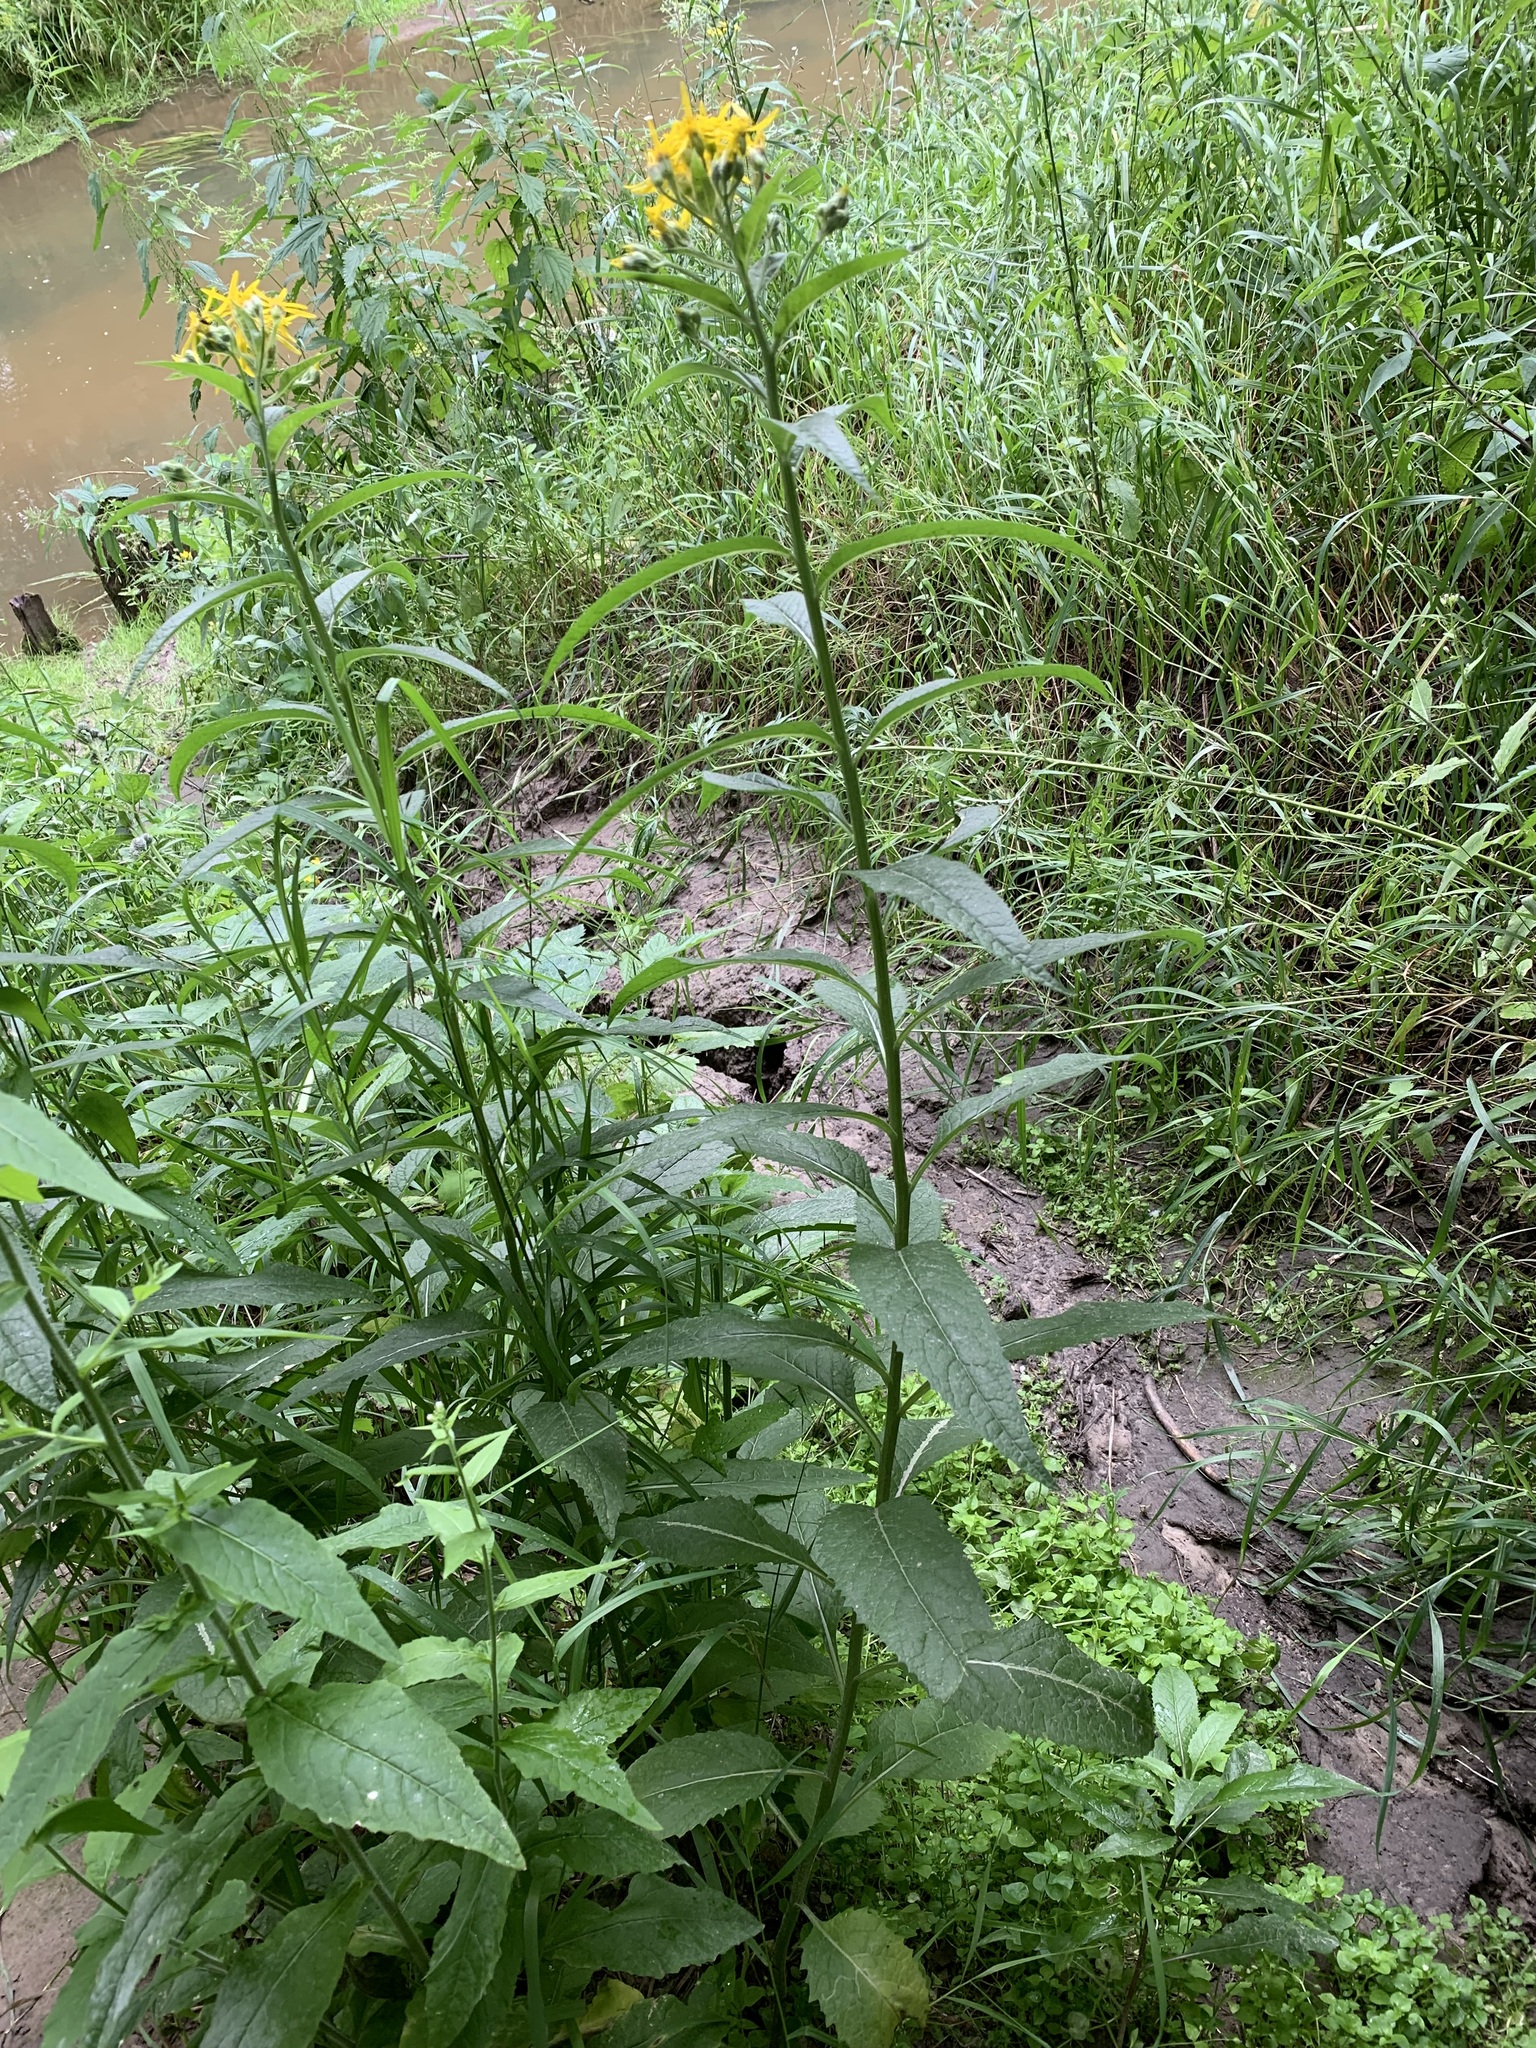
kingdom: Plantae
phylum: Tracheophyta
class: Magnoliopsida
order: Asterales
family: Asteraceae
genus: Senecio
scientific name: Senecio nemorensis
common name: Alpine ragwort
